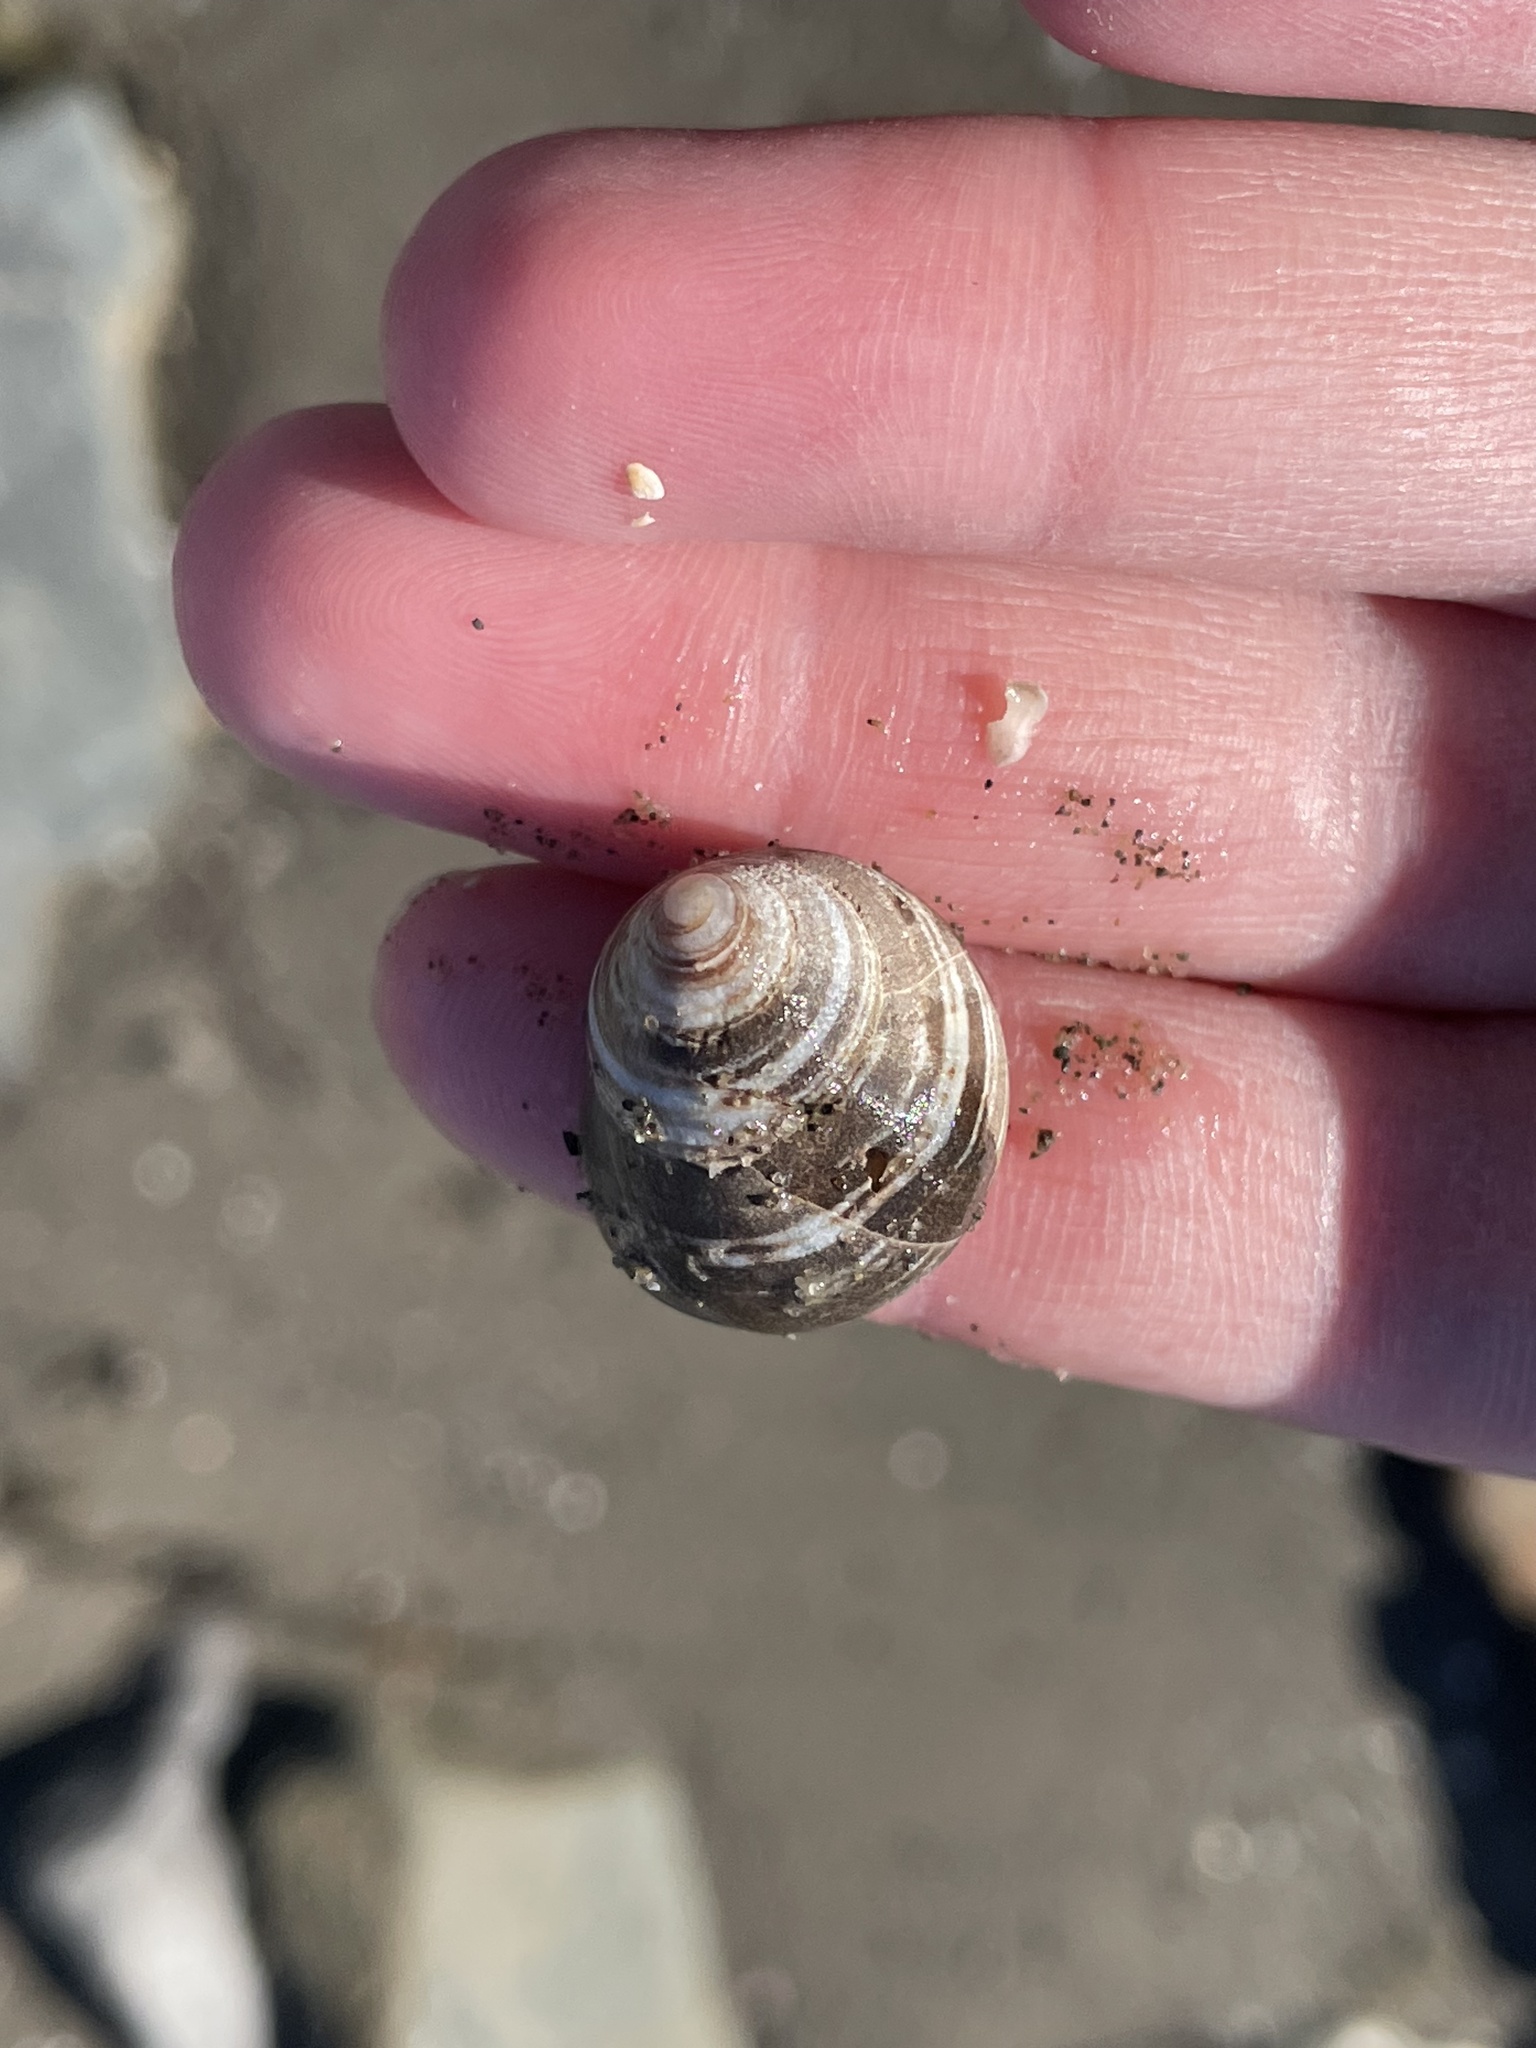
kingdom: Animalia
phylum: Mollusca
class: Gastropoda
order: Littorinimorpha
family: Littorinidae
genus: Littorina
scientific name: Littorina littorea
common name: Common periwinkle
